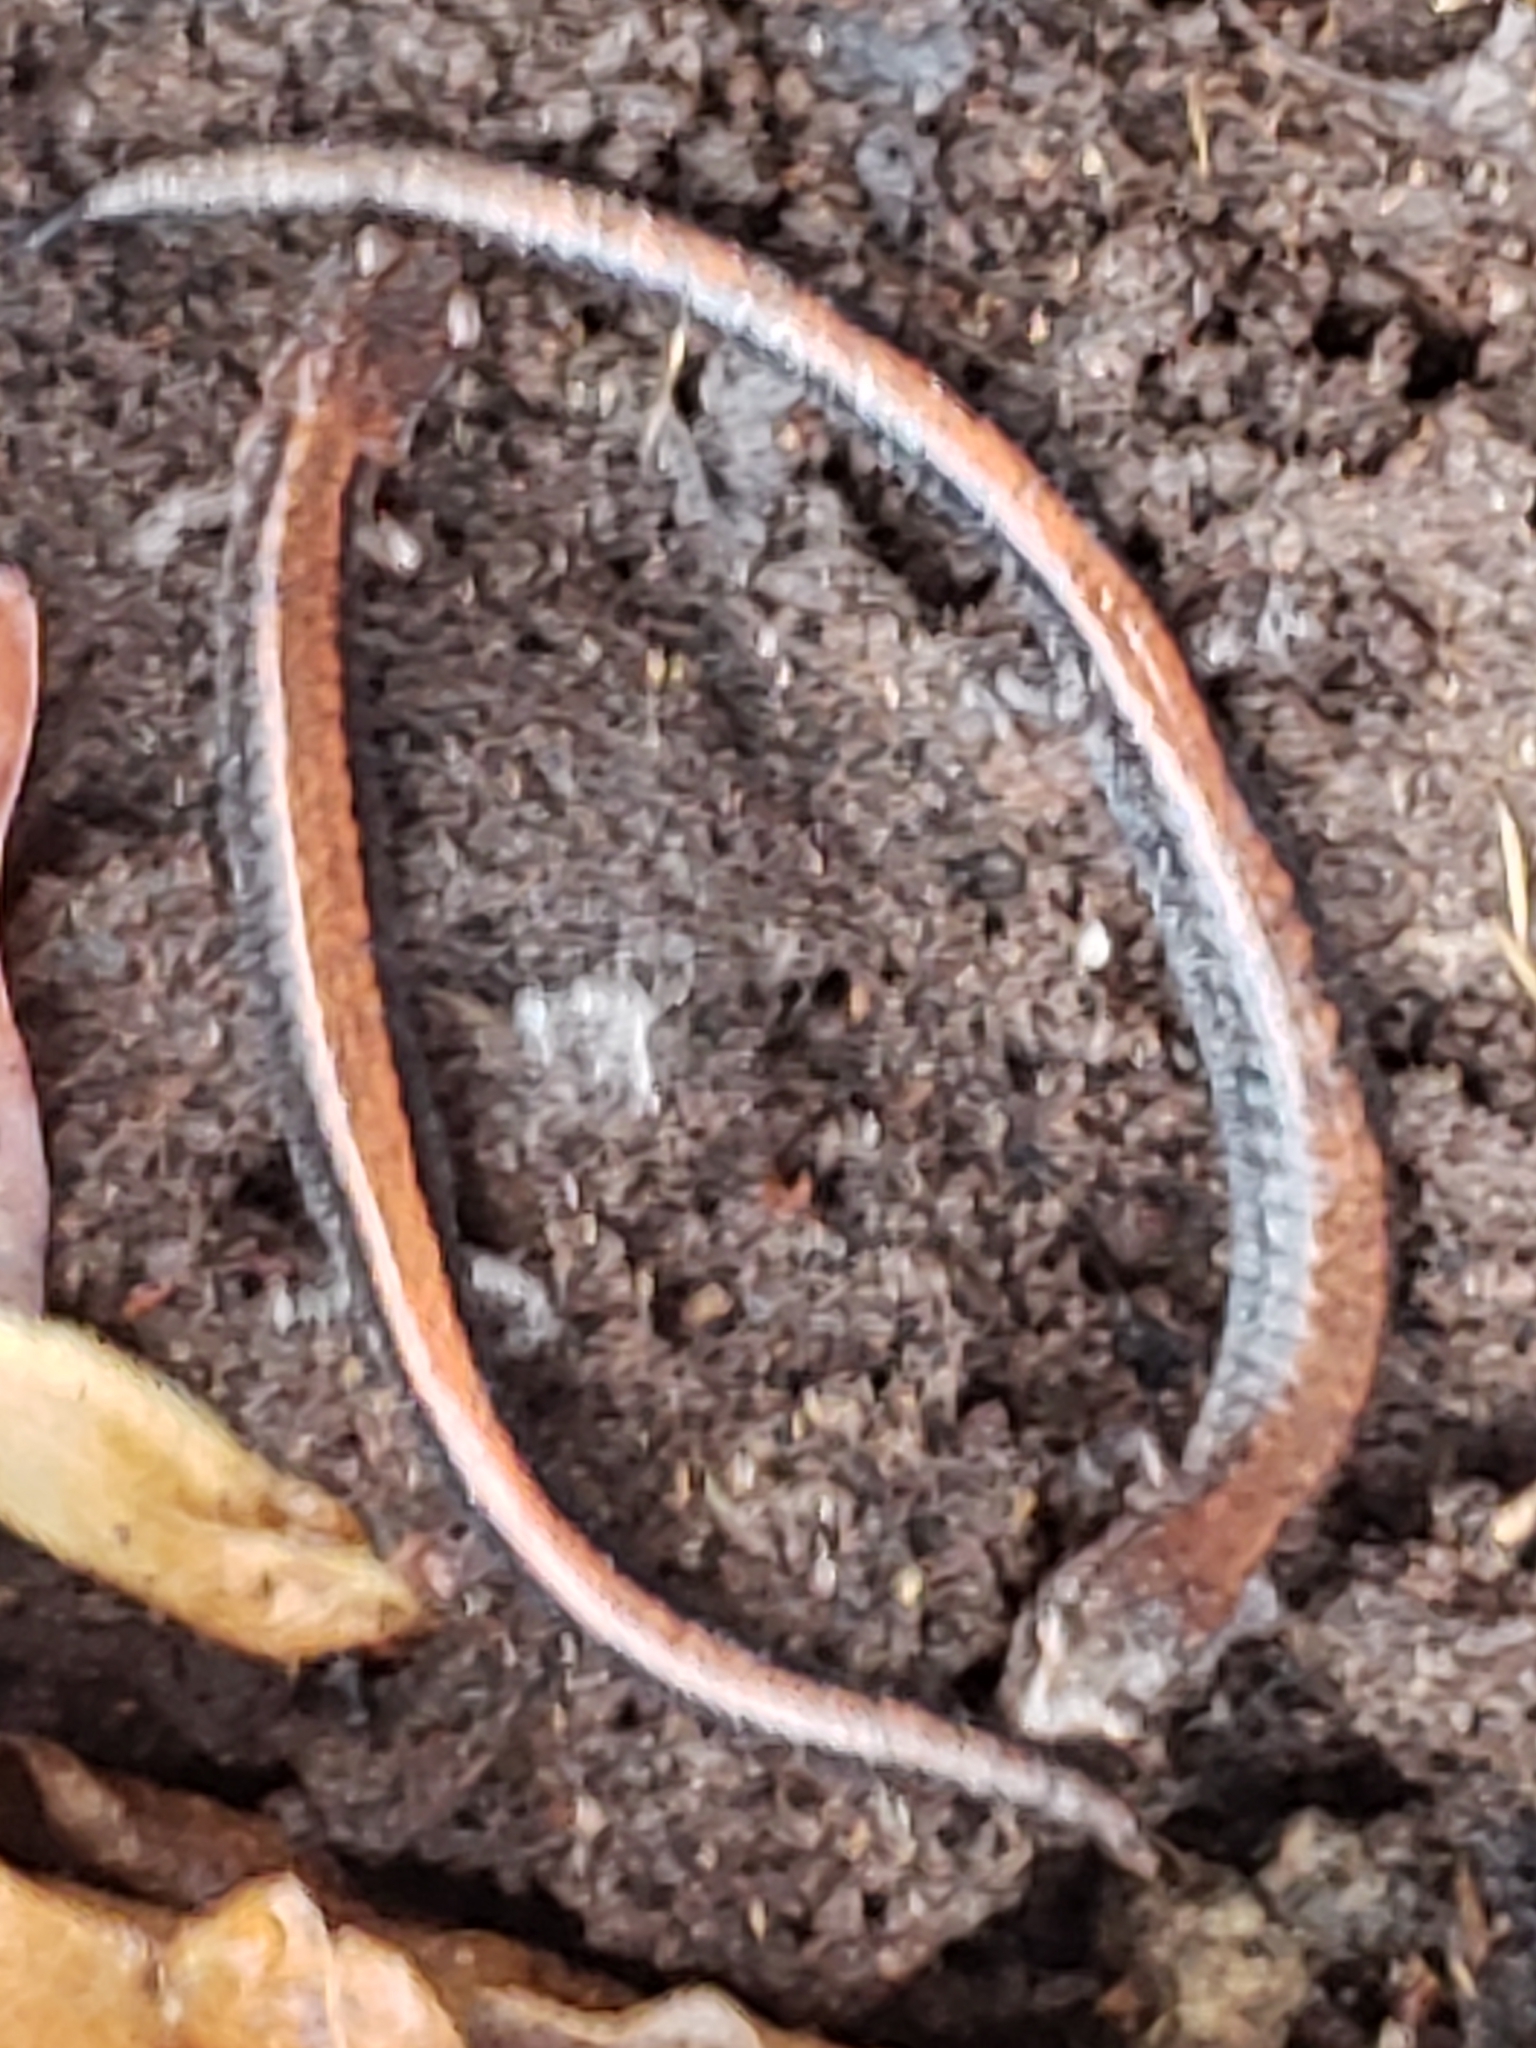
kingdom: Animalia
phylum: Chordata
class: Amphibia
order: Caudata
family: Plethodontidae
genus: Plethodon
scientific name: Plethodon cinereus
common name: Redback salamander
